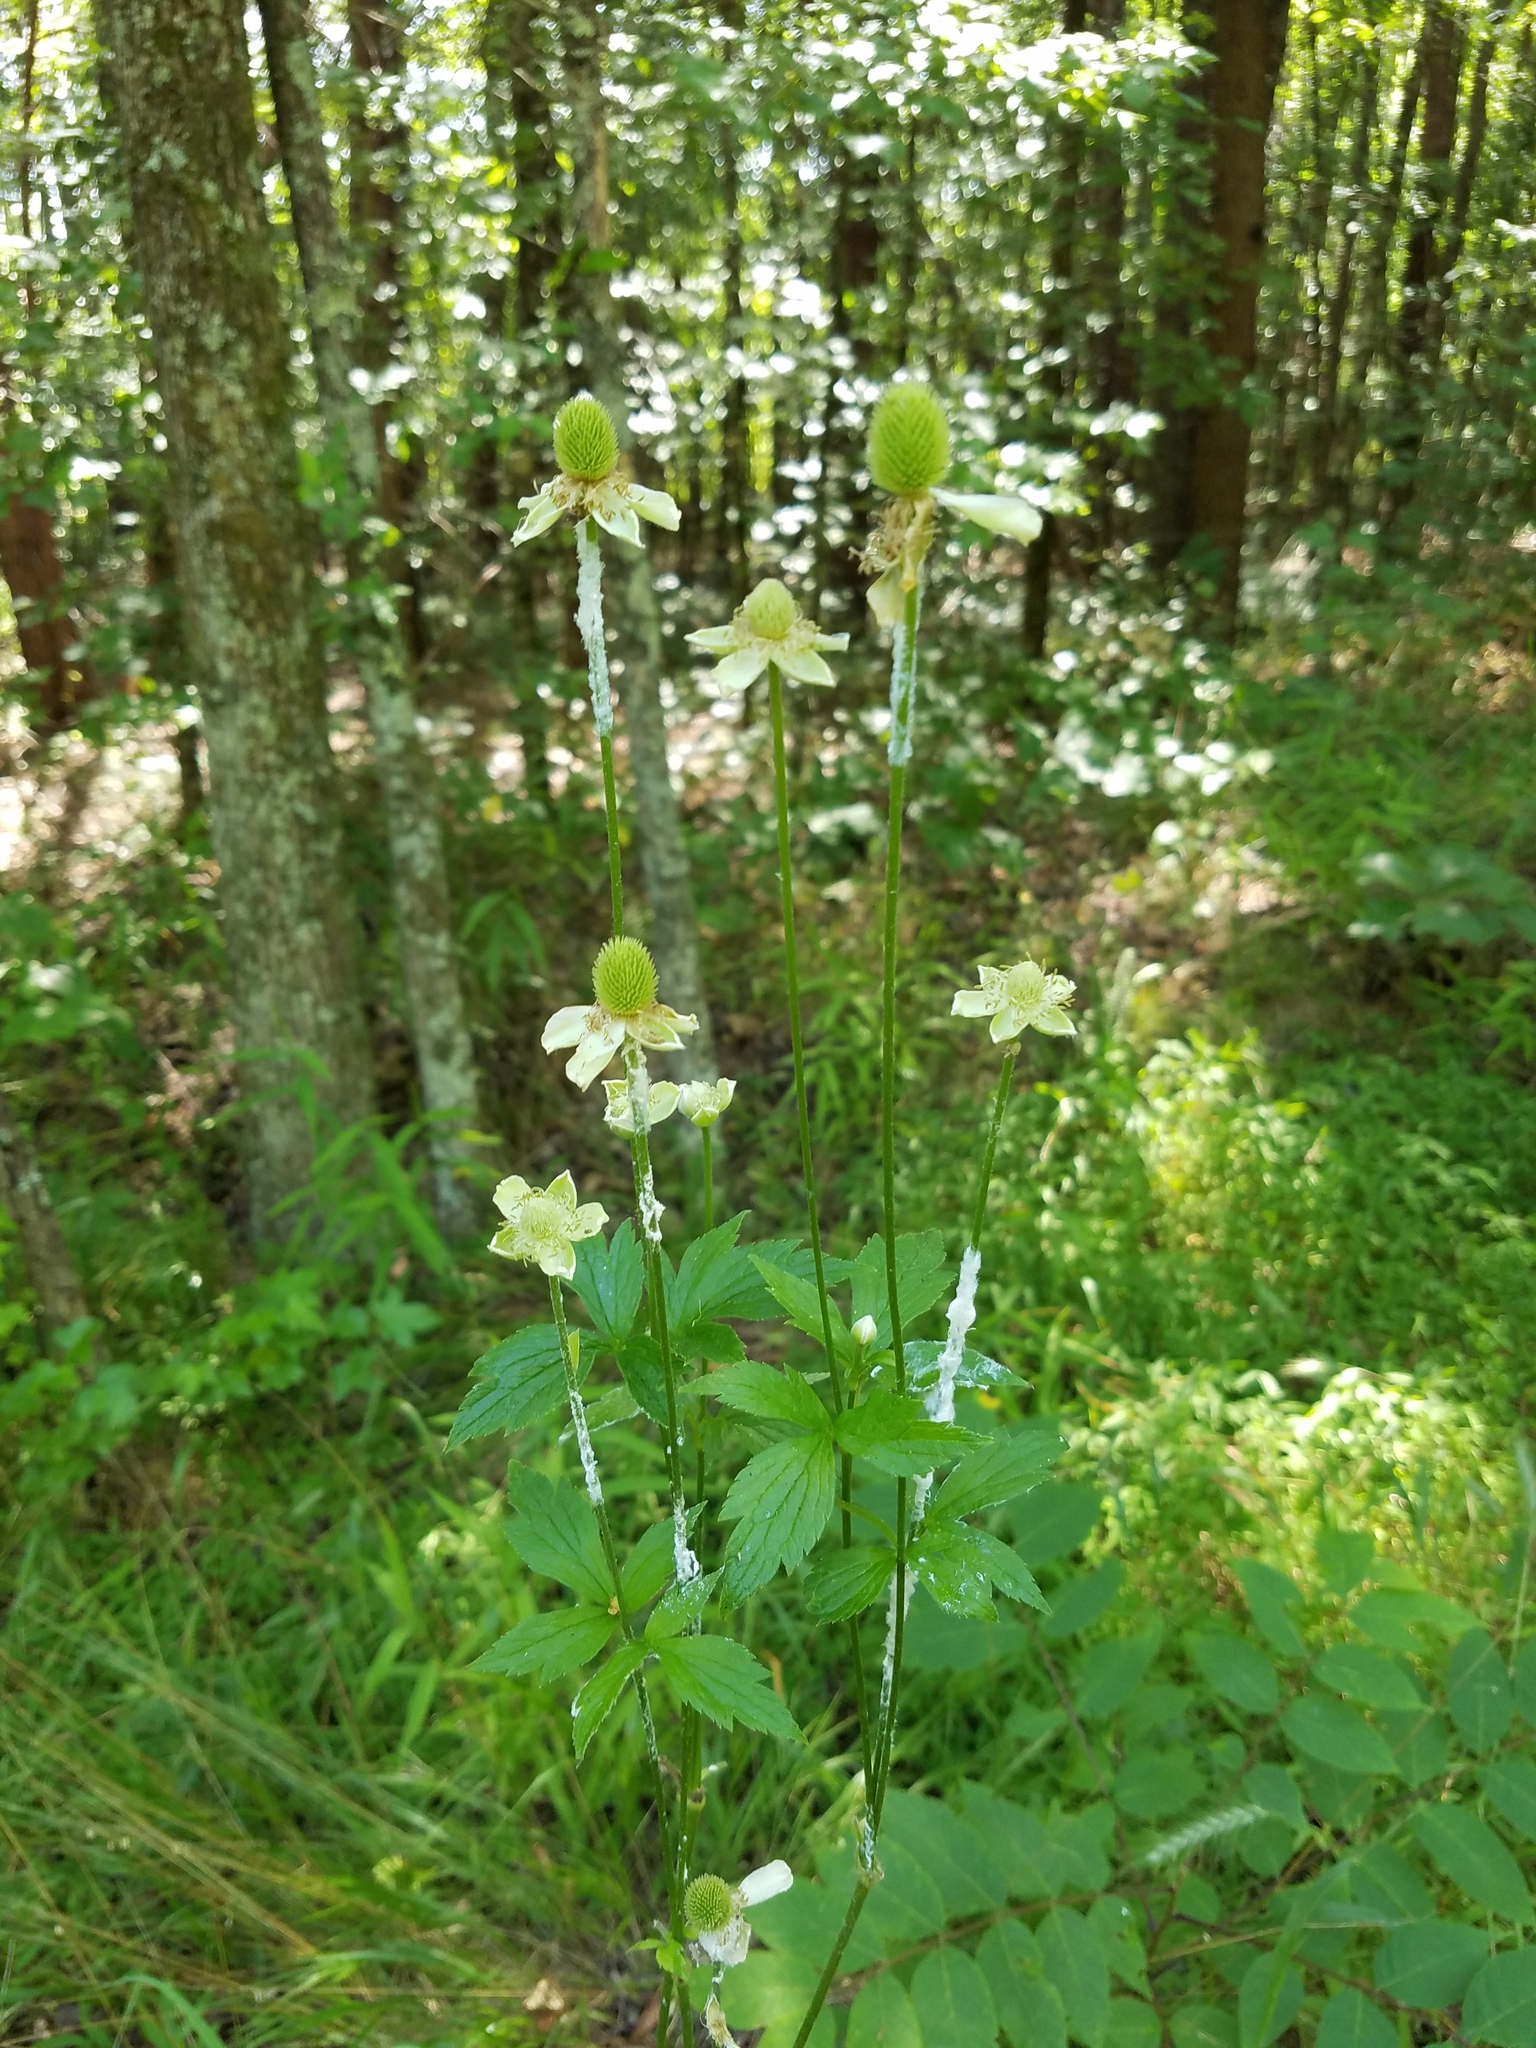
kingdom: Plantae
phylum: Tracheophyta
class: Magnoliopsida
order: Ranunculales
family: Ranunculaceae
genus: Anemone
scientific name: Anemone virginiana
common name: Tall anemone
